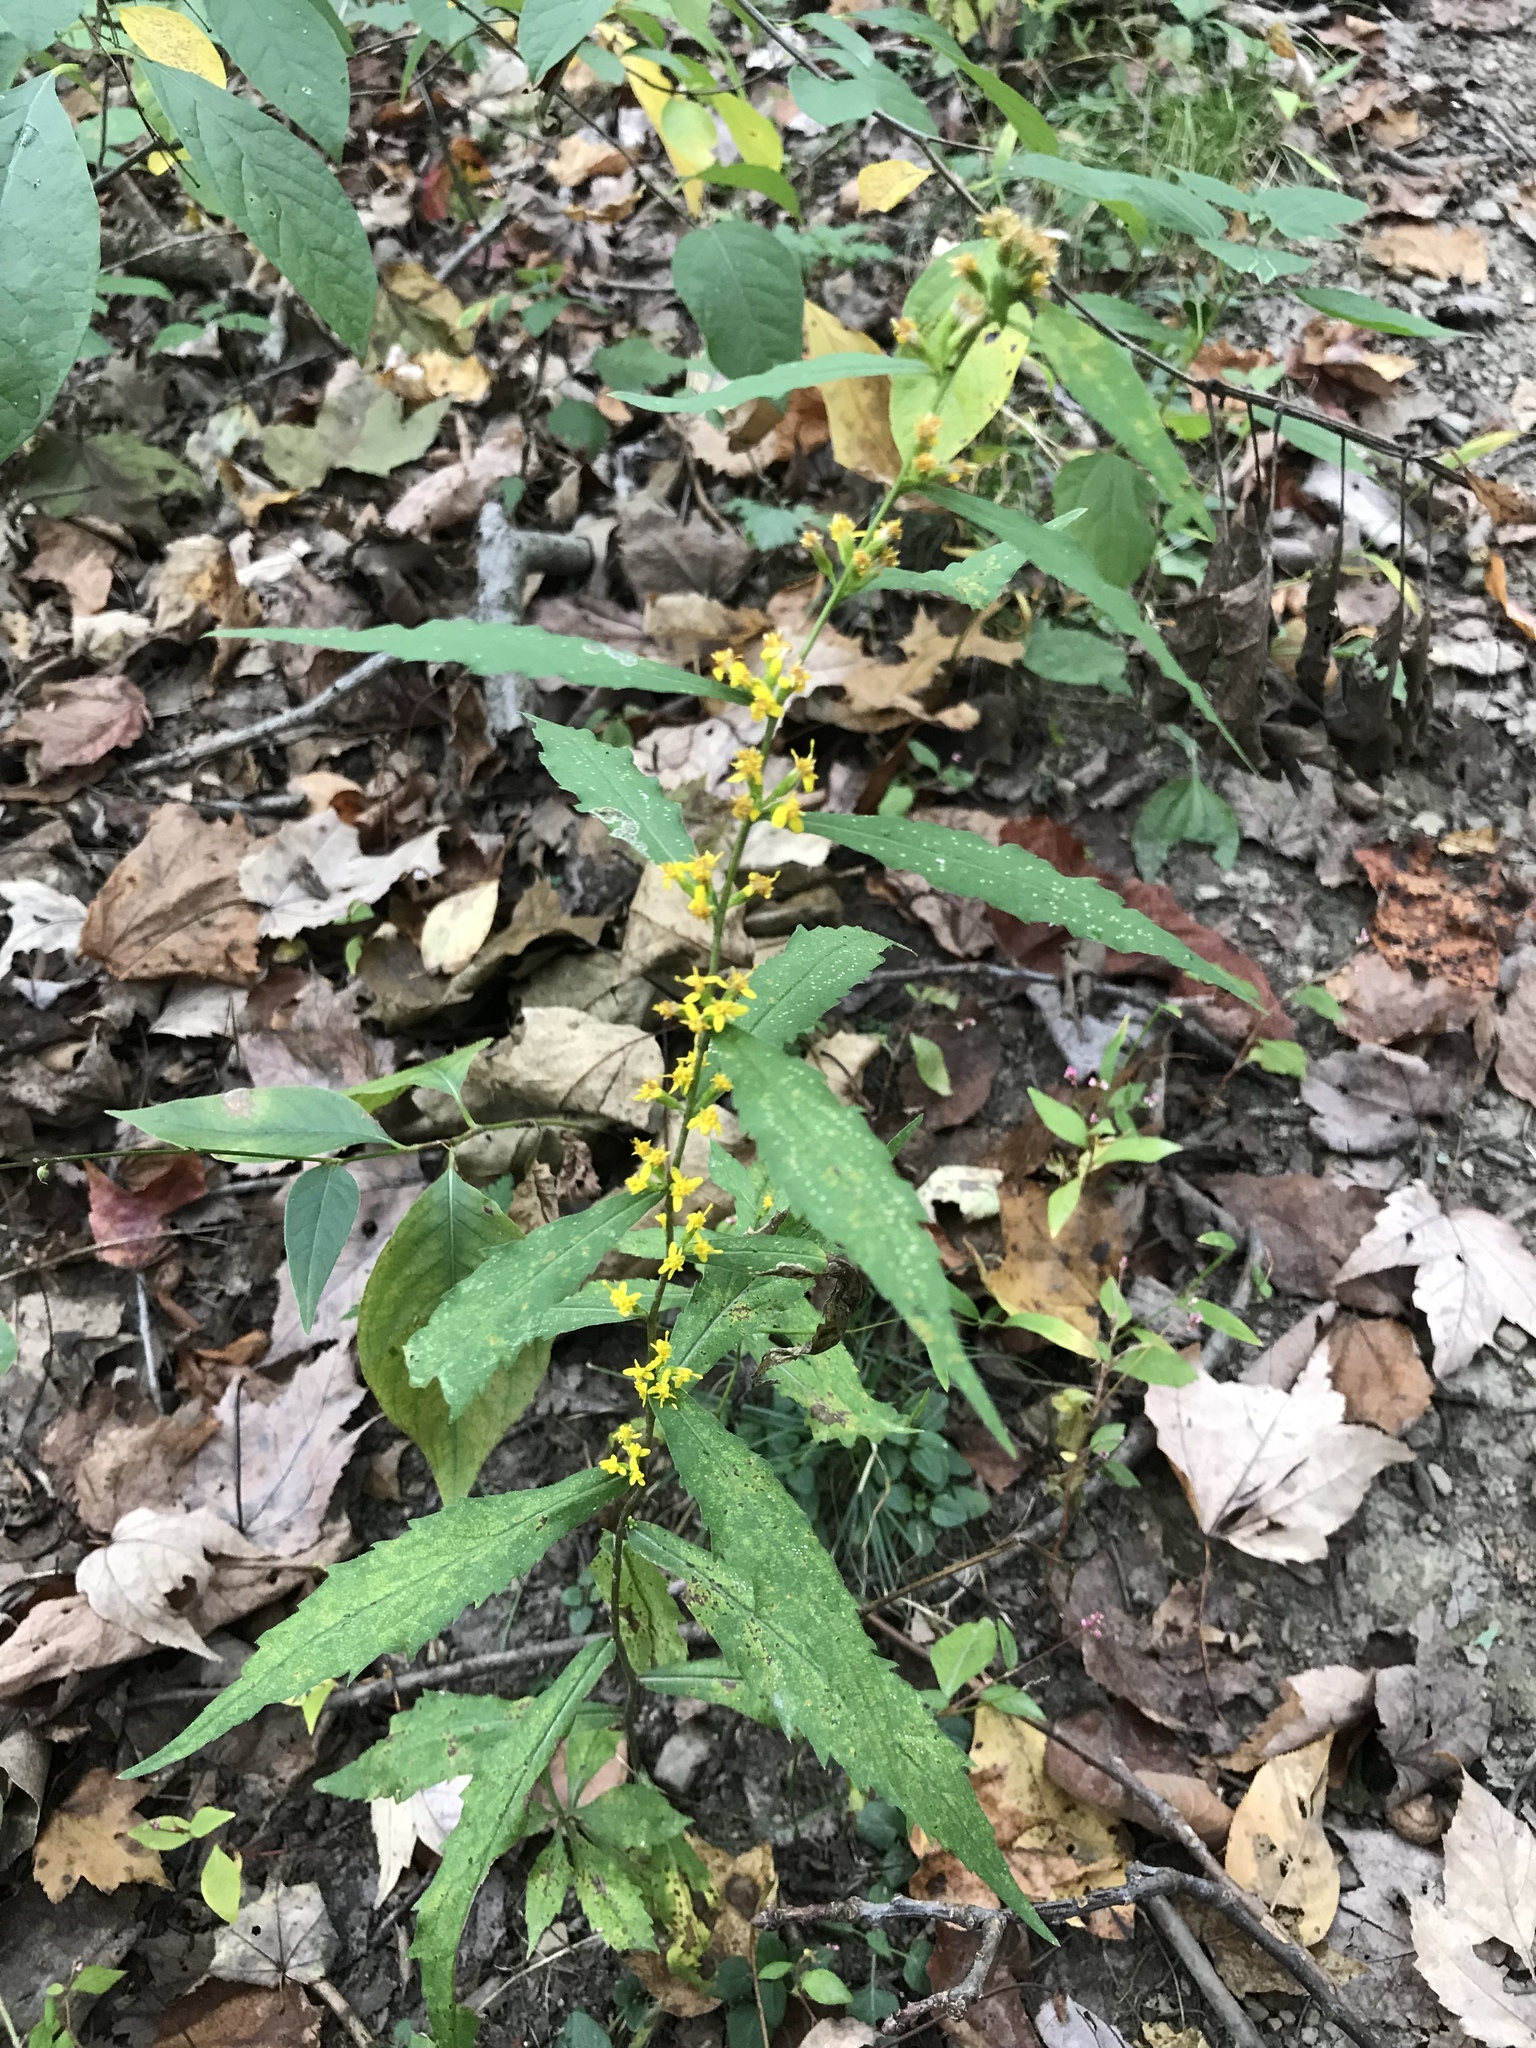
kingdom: Plantae
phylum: Tracheophyta
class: Magnoliopsida
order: Asterales
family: Asteraceae
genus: Solidago
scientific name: Solidago caesia
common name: Woodland goldenrod
